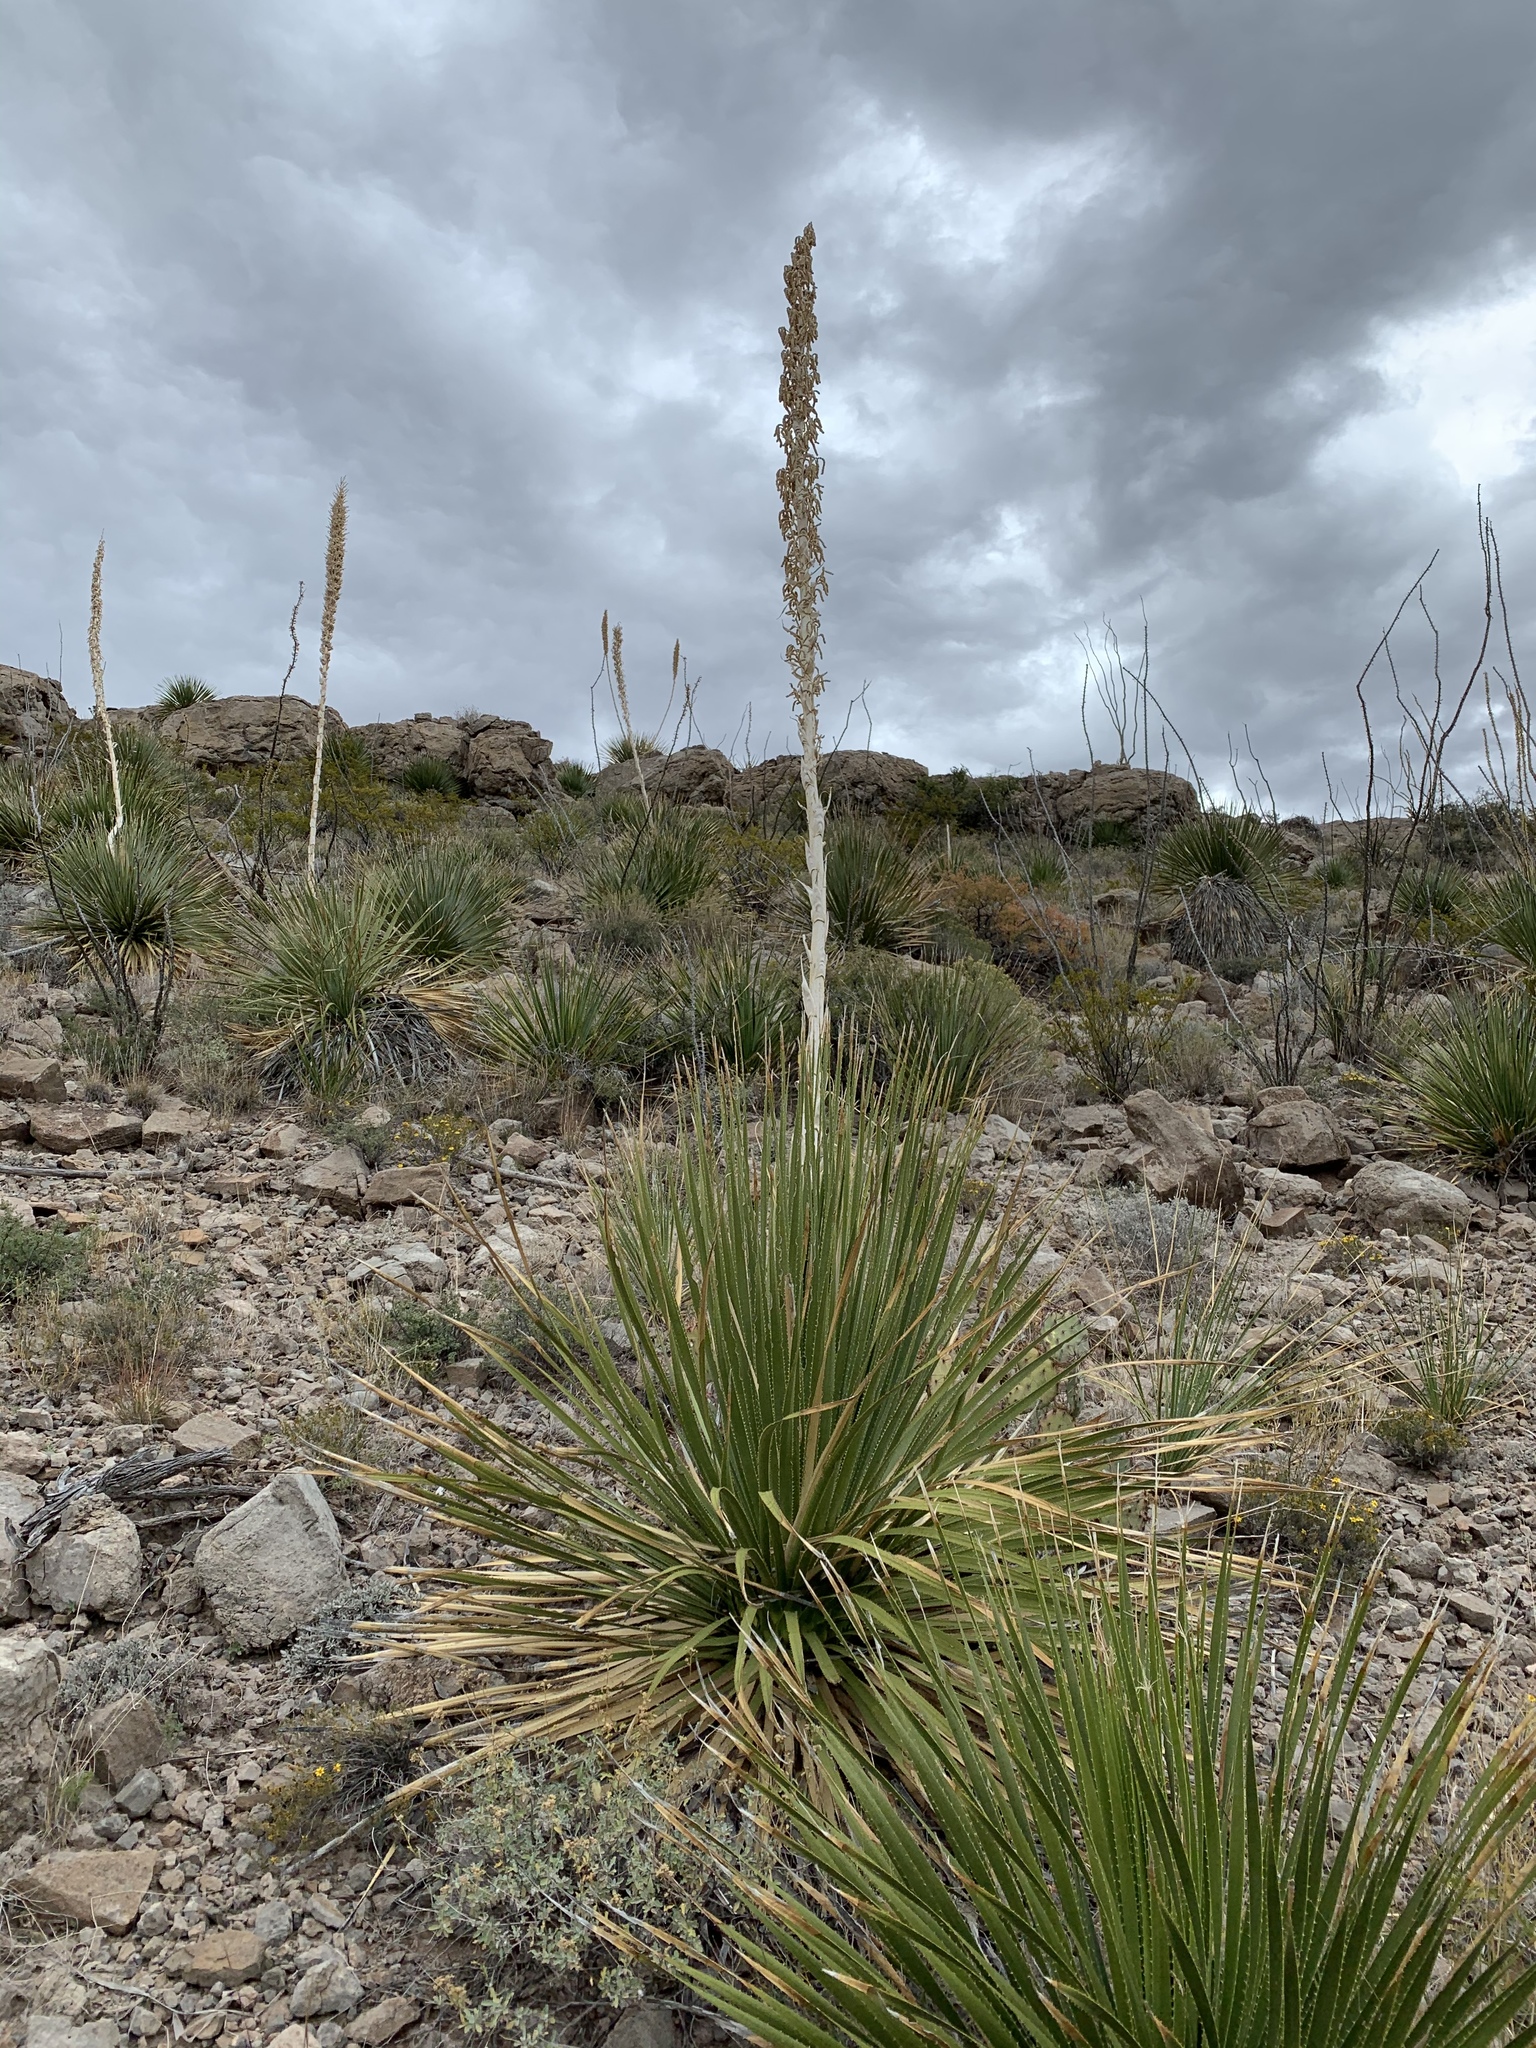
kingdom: Plantae
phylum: Tracheophyta
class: Liliopsida
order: Asparagales
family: Asparagaceae
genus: Dasylirion
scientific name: Dasylirion wheeleri
